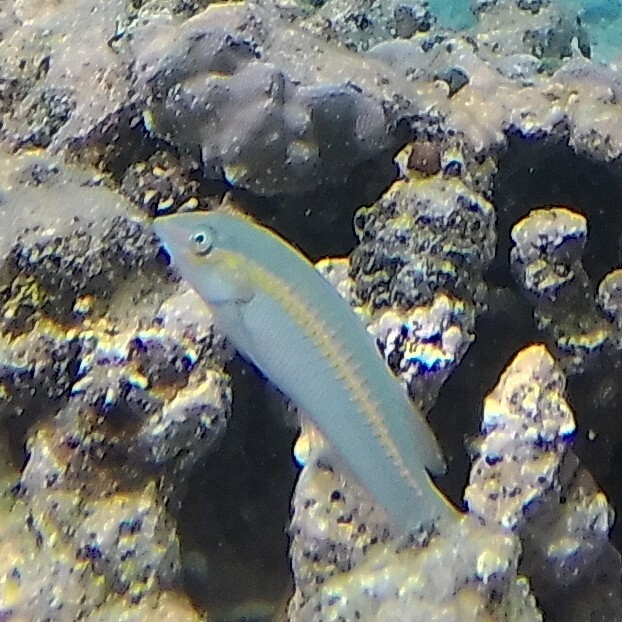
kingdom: Animalia
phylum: Chordata
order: Perciformes
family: Labridae
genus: Halichoeres
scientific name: Halichoeres scapularis
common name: Brownbanded wrasse
